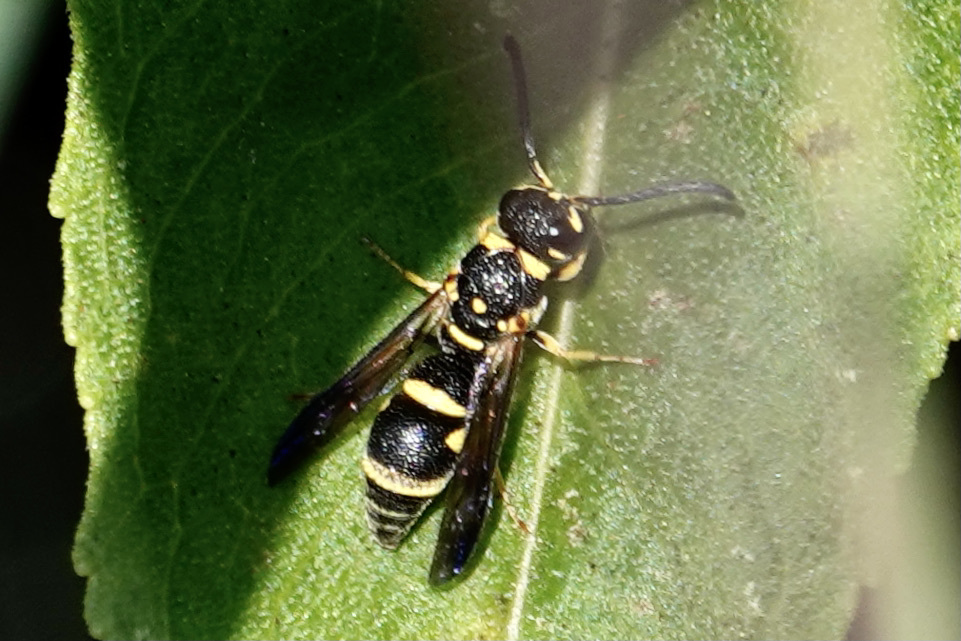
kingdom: Animalia
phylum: Arthropoda
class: Insecta
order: Hymenoptera
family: Eumenidae
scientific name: Eumenidae
